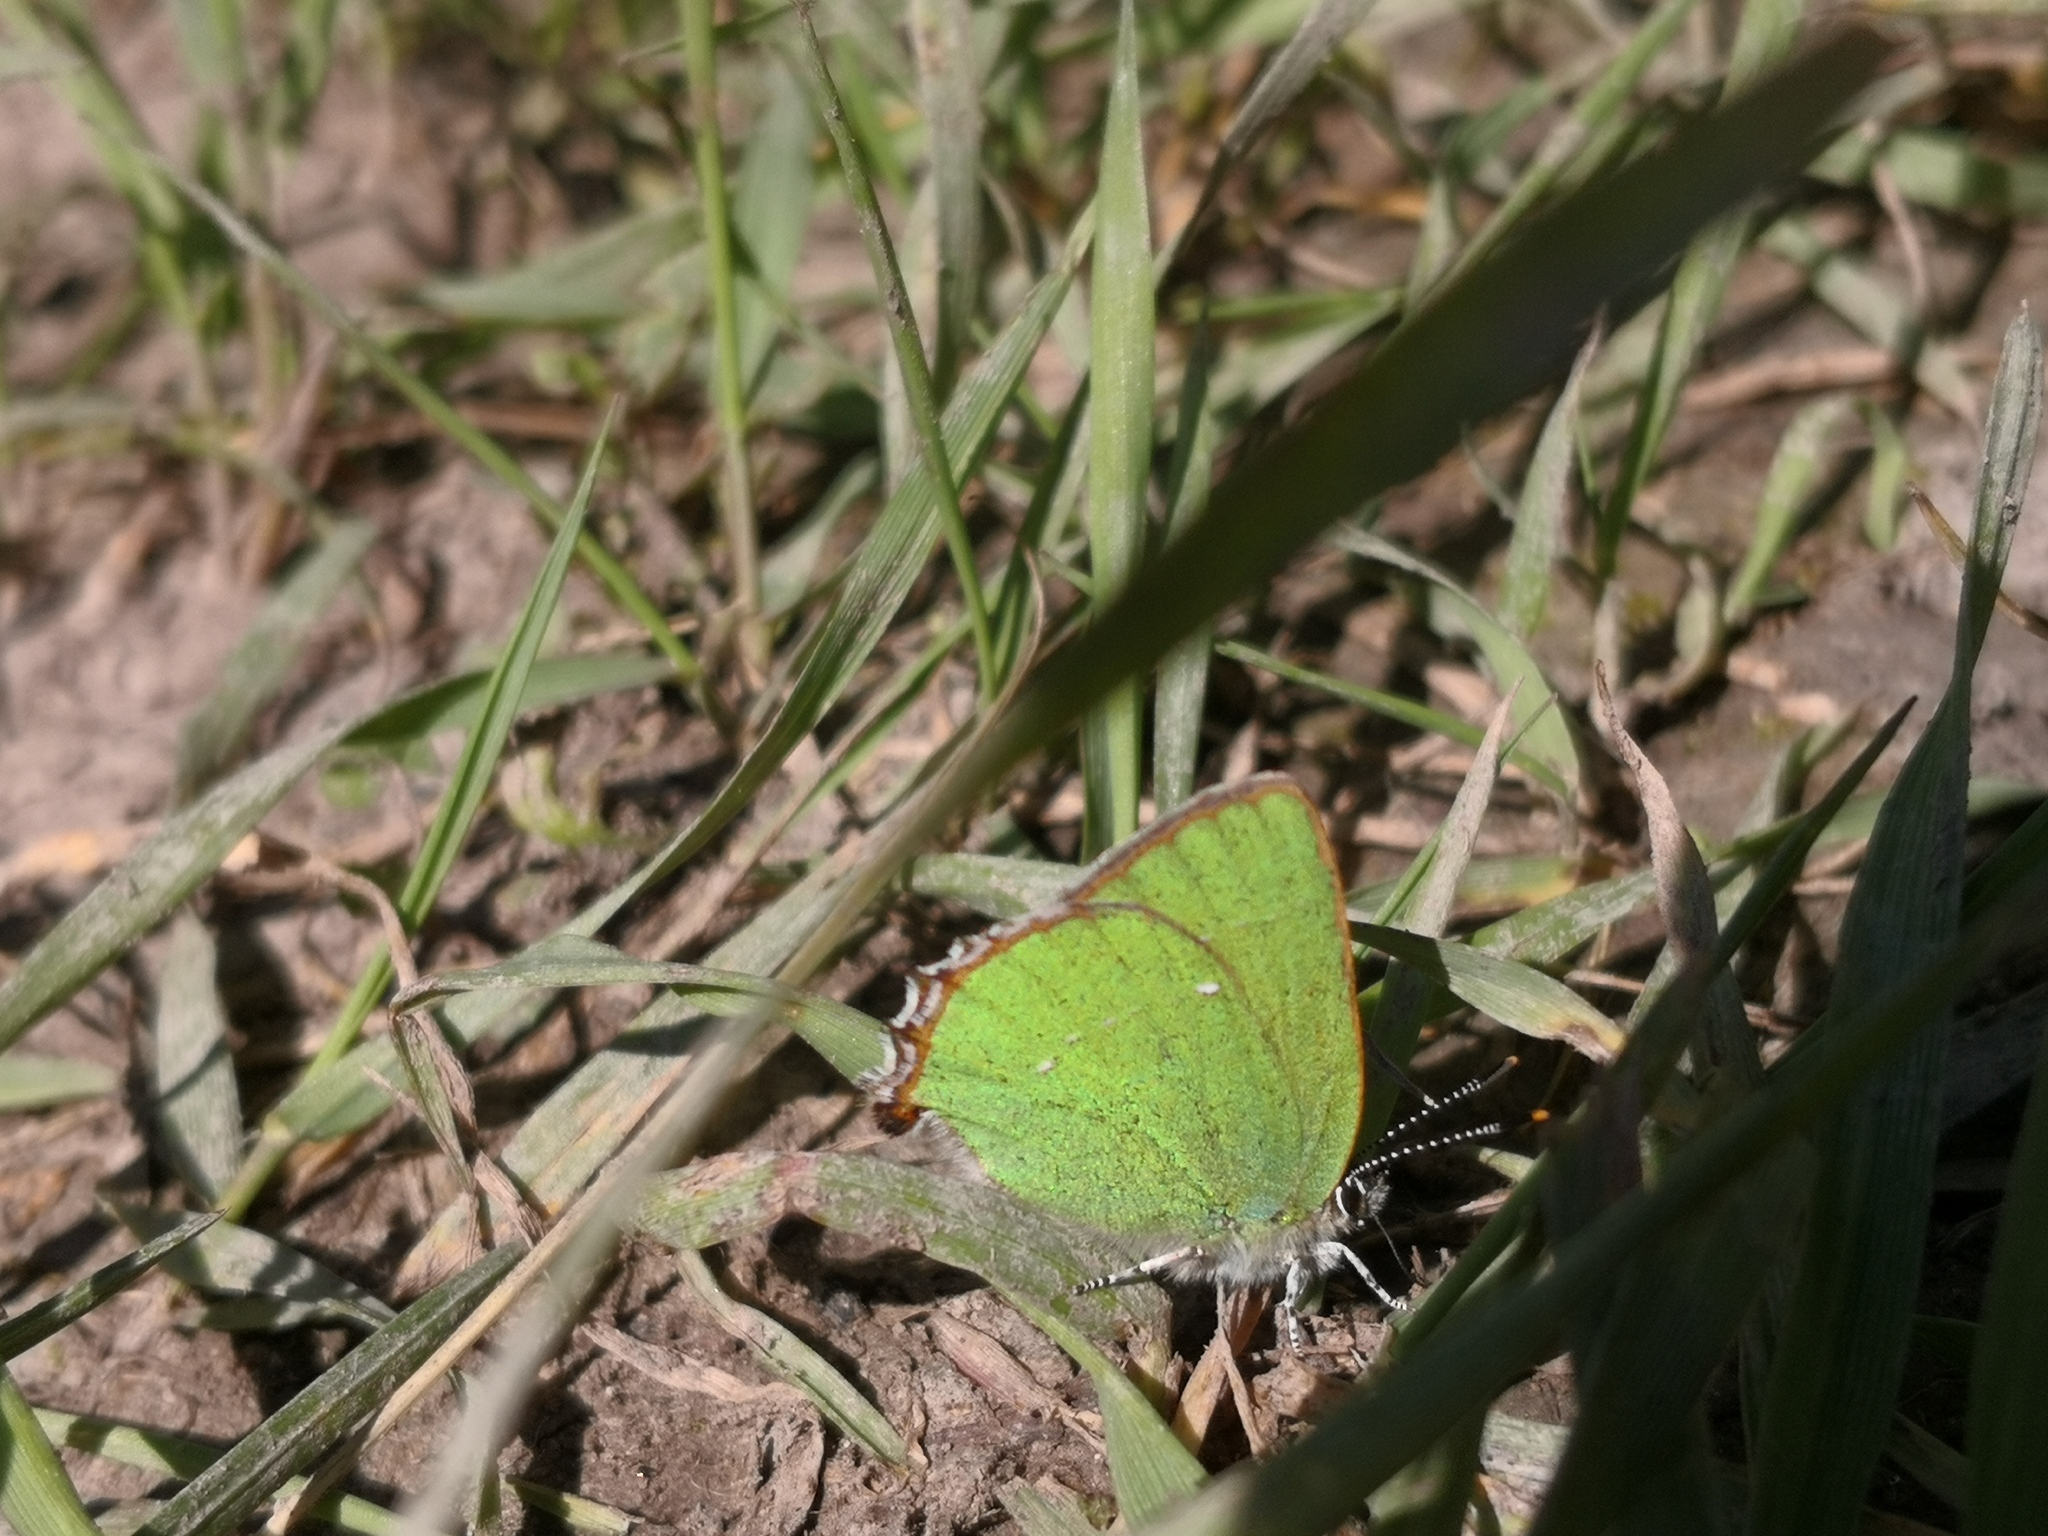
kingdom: Animalia
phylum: Arthropoda
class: Insecta
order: Lepidoptera
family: Lycaenidae
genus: Callophrys
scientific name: Callophrys rubi
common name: Green hairstreak
